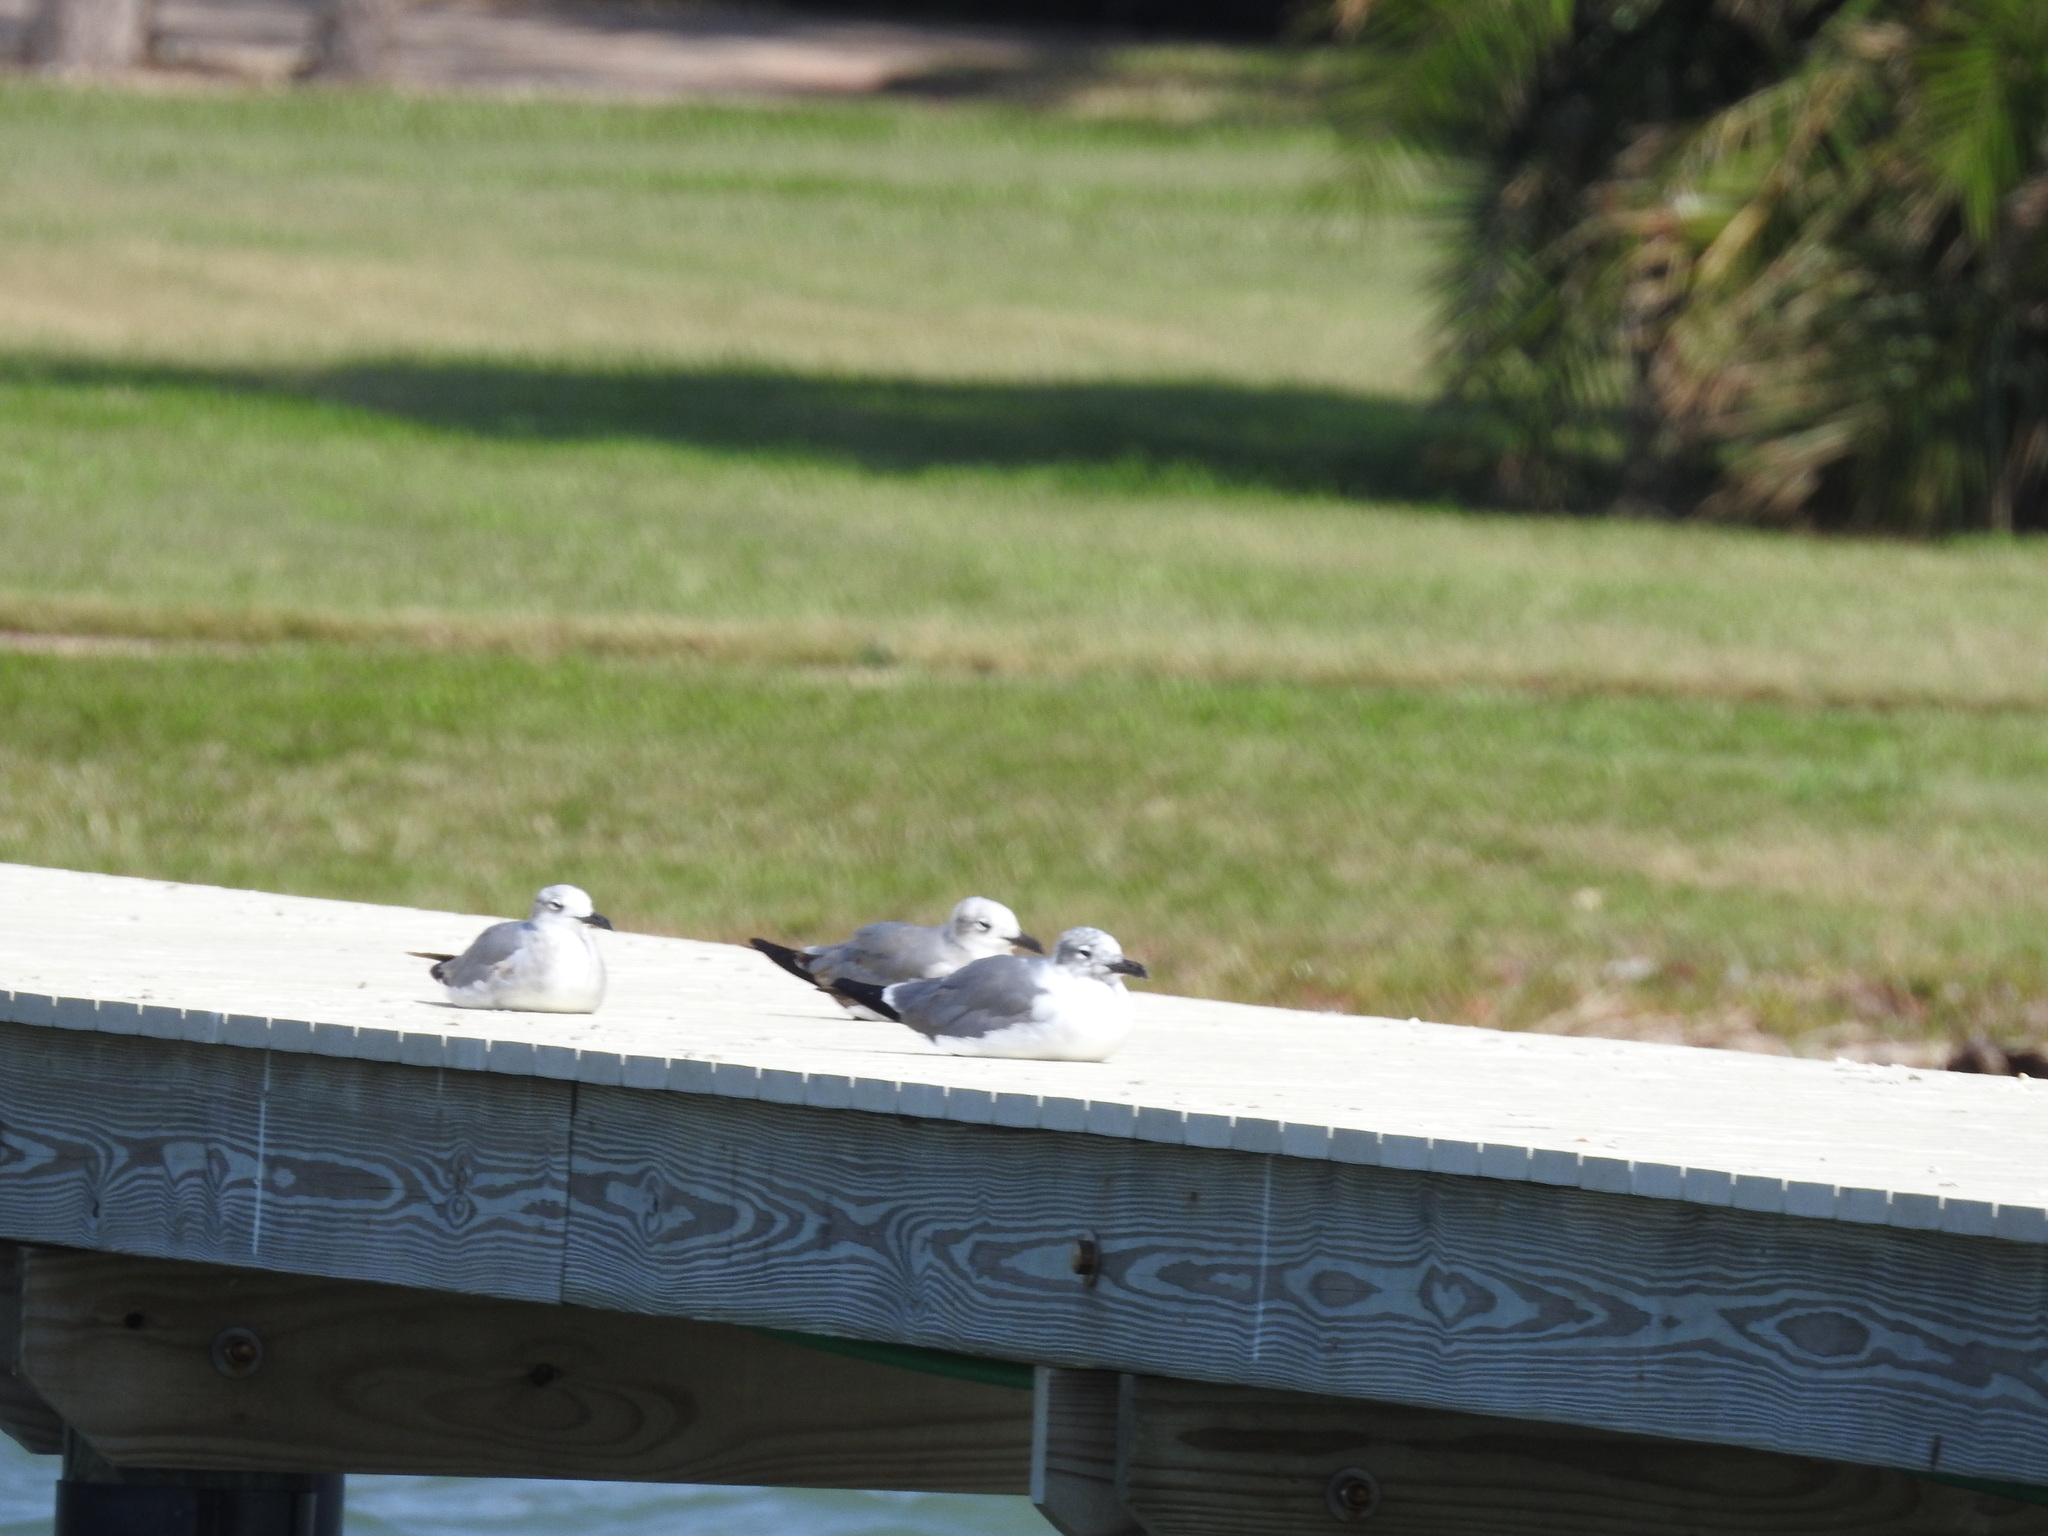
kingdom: Animalia
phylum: Chordata
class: Aves
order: Charadriiformes
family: Laridae
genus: Leucophaeus
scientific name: Leucophaeus atricilla
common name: Laughing gull
